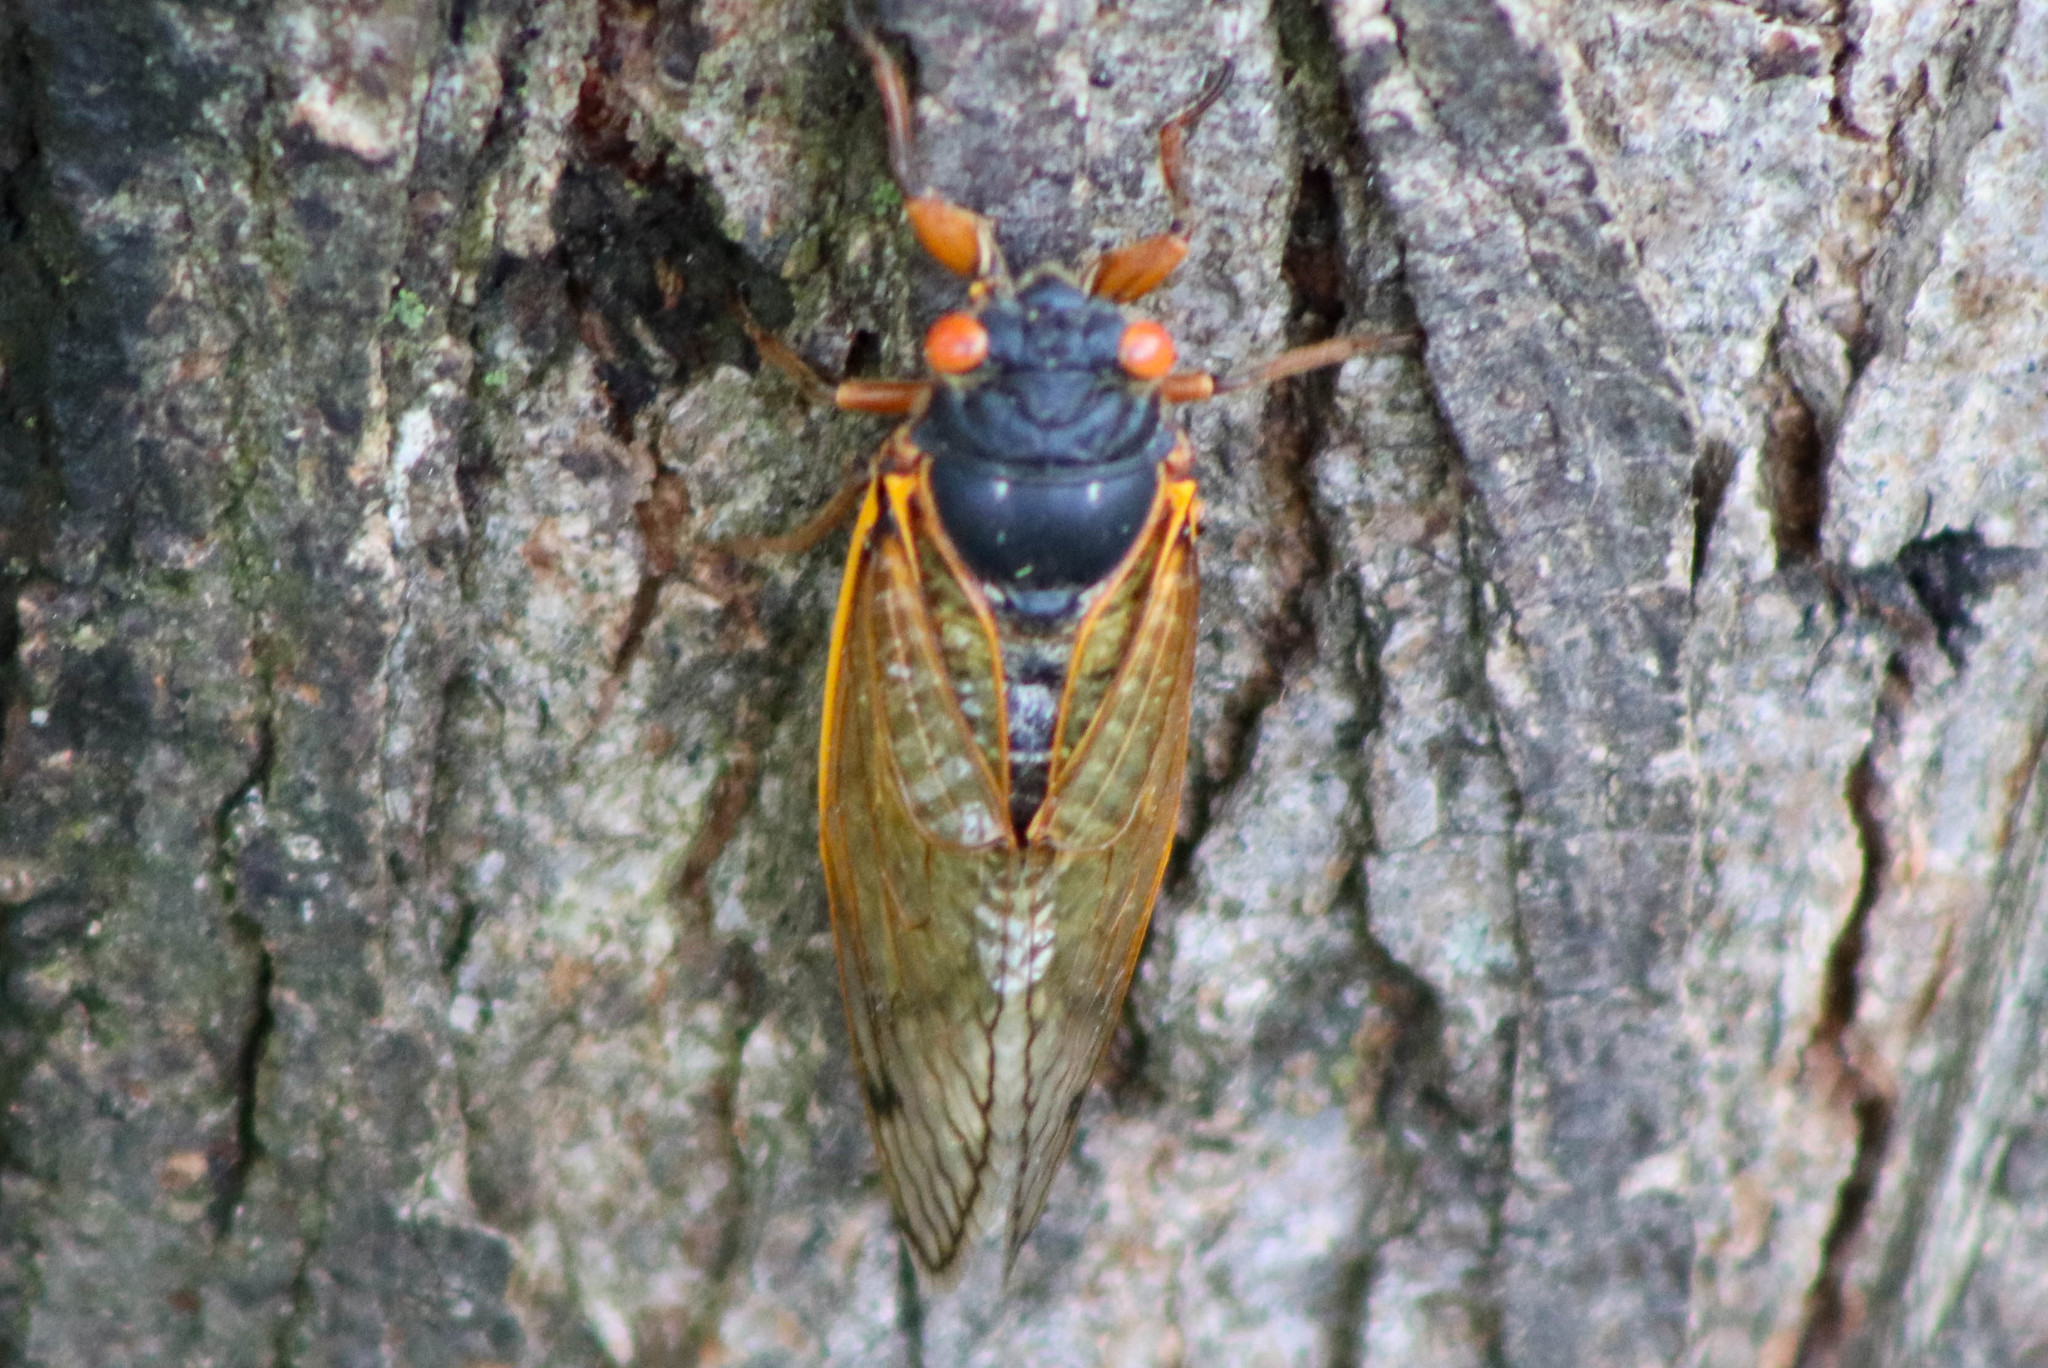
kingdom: Animalia
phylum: Arthropoda
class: Insecta
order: Hemiptera
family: Cicadidae
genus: Magicicada
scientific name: Magicicada
